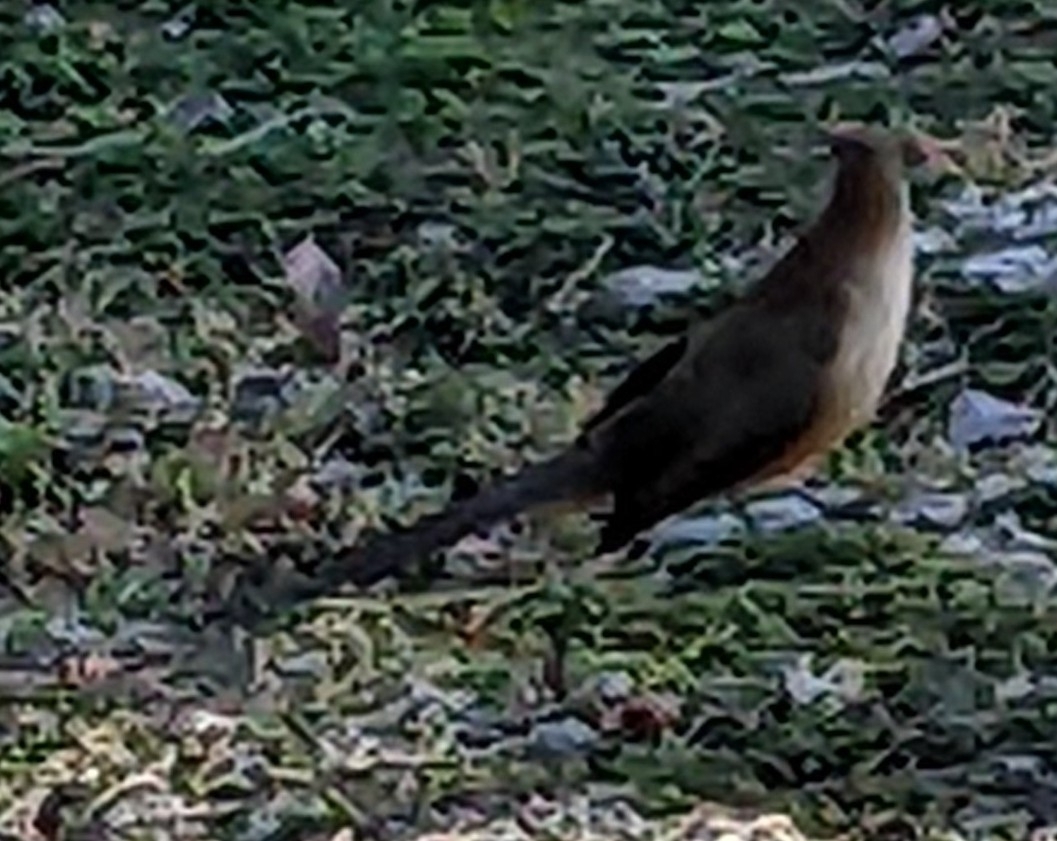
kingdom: Animalia
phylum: Chordata
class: Aves
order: Cuculiformes
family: Cuculidae
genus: Saurothera
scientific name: Saurothera merlini
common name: Great lizard-cuckoo
